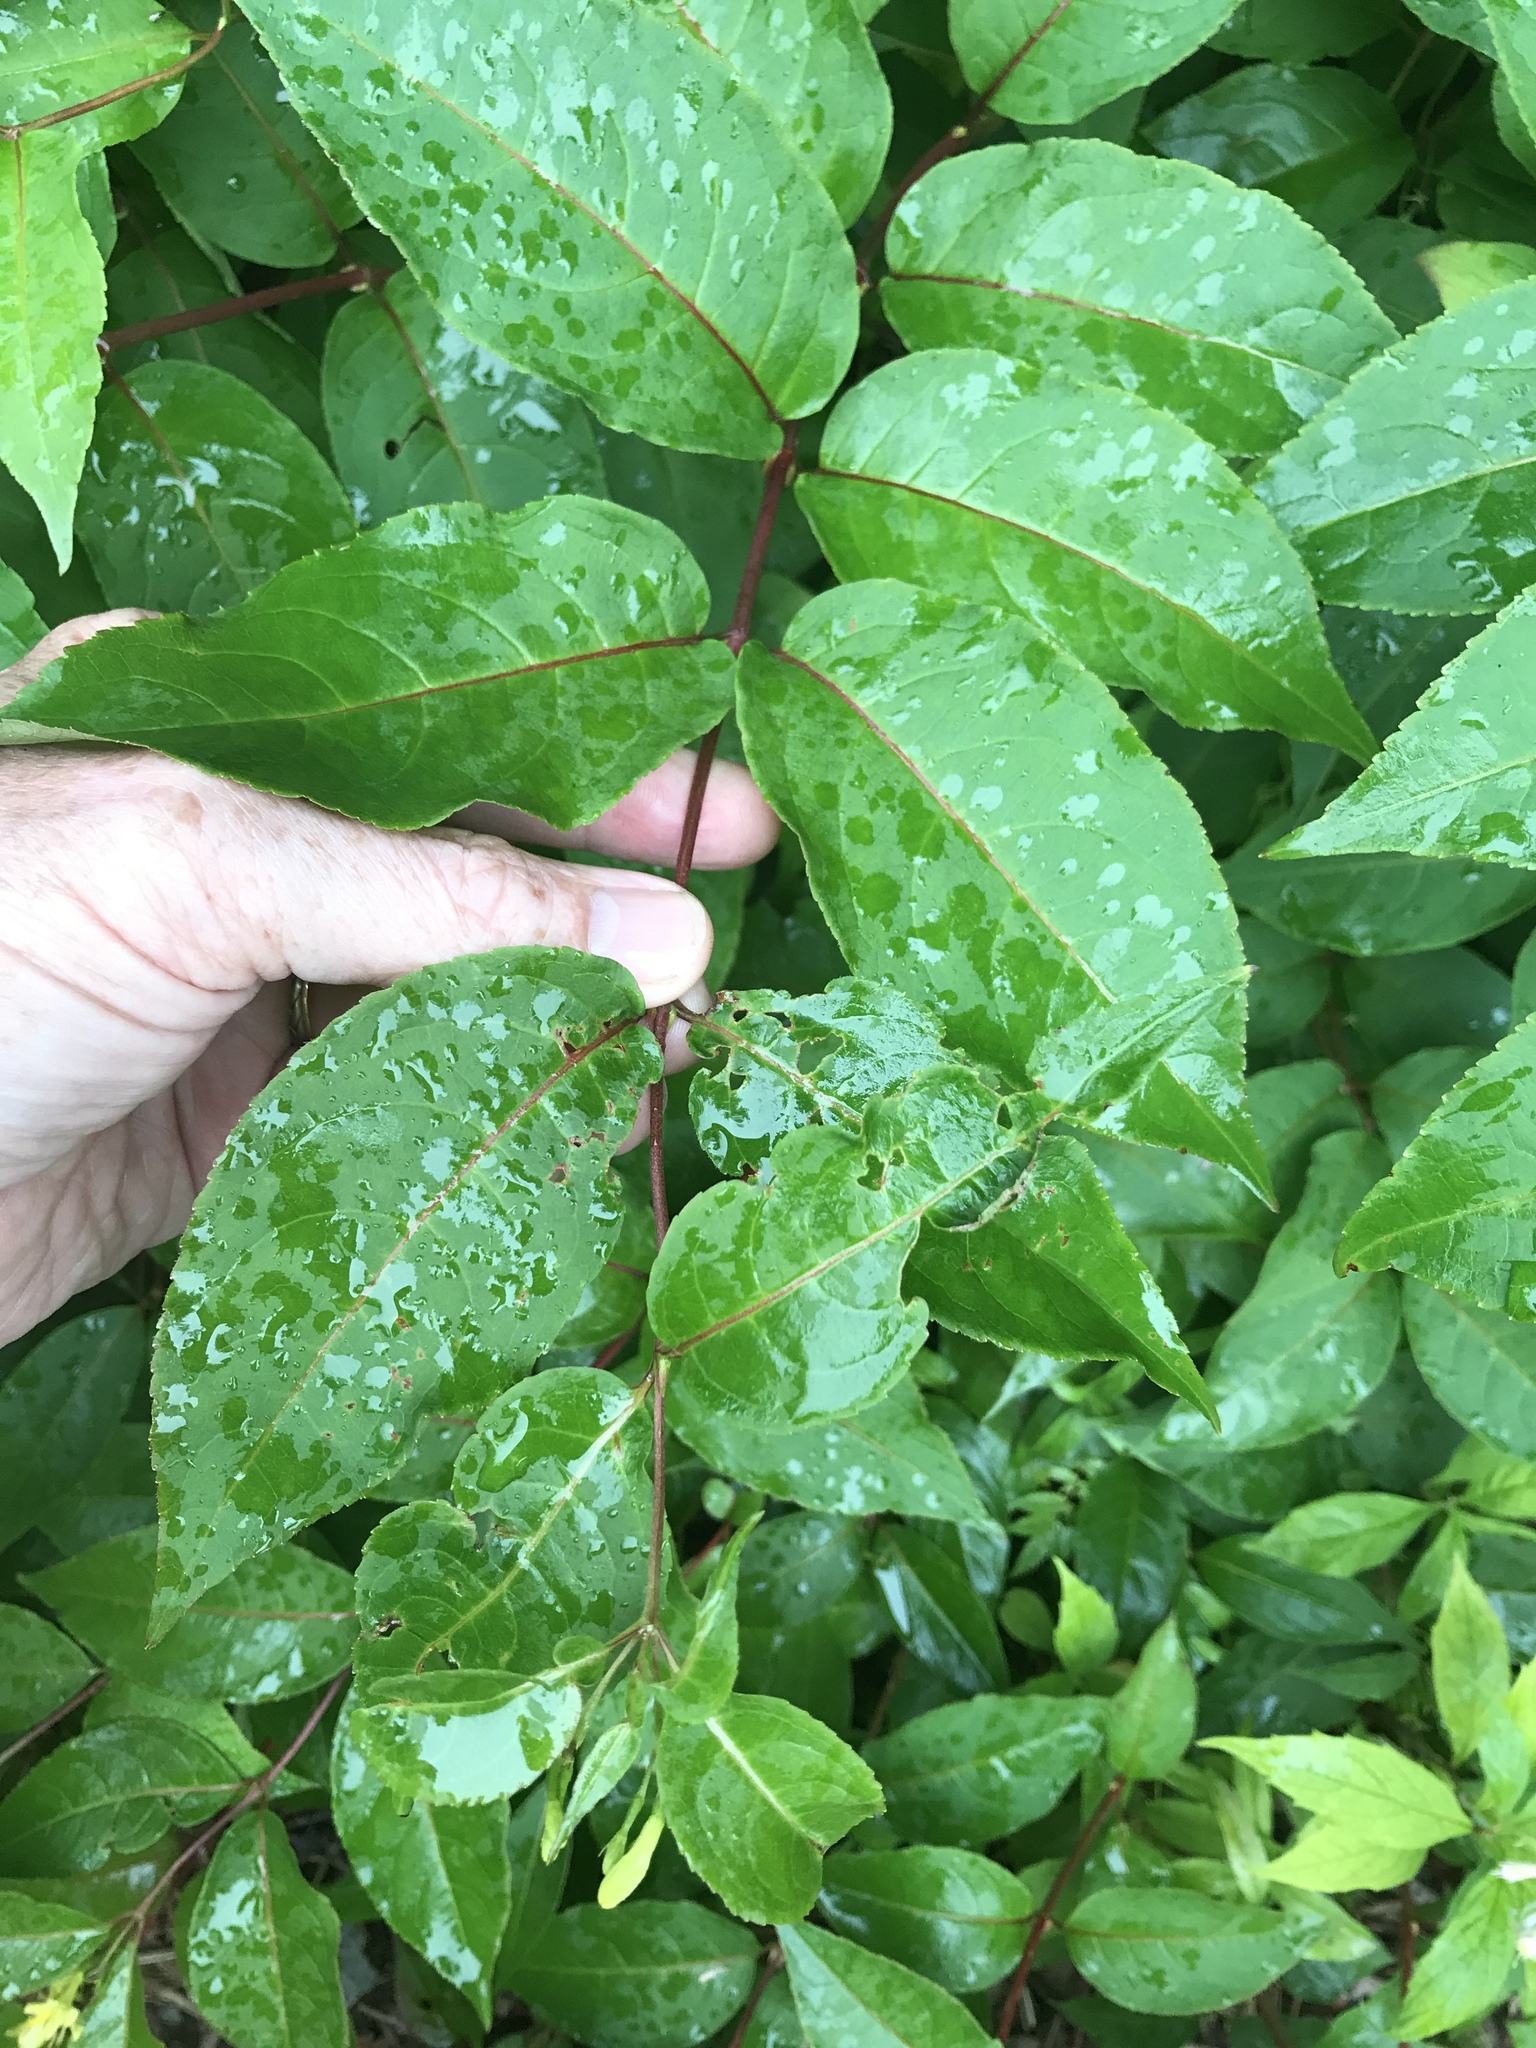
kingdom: Plantae
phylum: Tracheophyta
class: Magnoliopsida
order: Dipsacales
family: Caprifoliaceae
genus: Diervilla
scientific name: Diervilla lonicera
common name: Bush-honeysuckle
